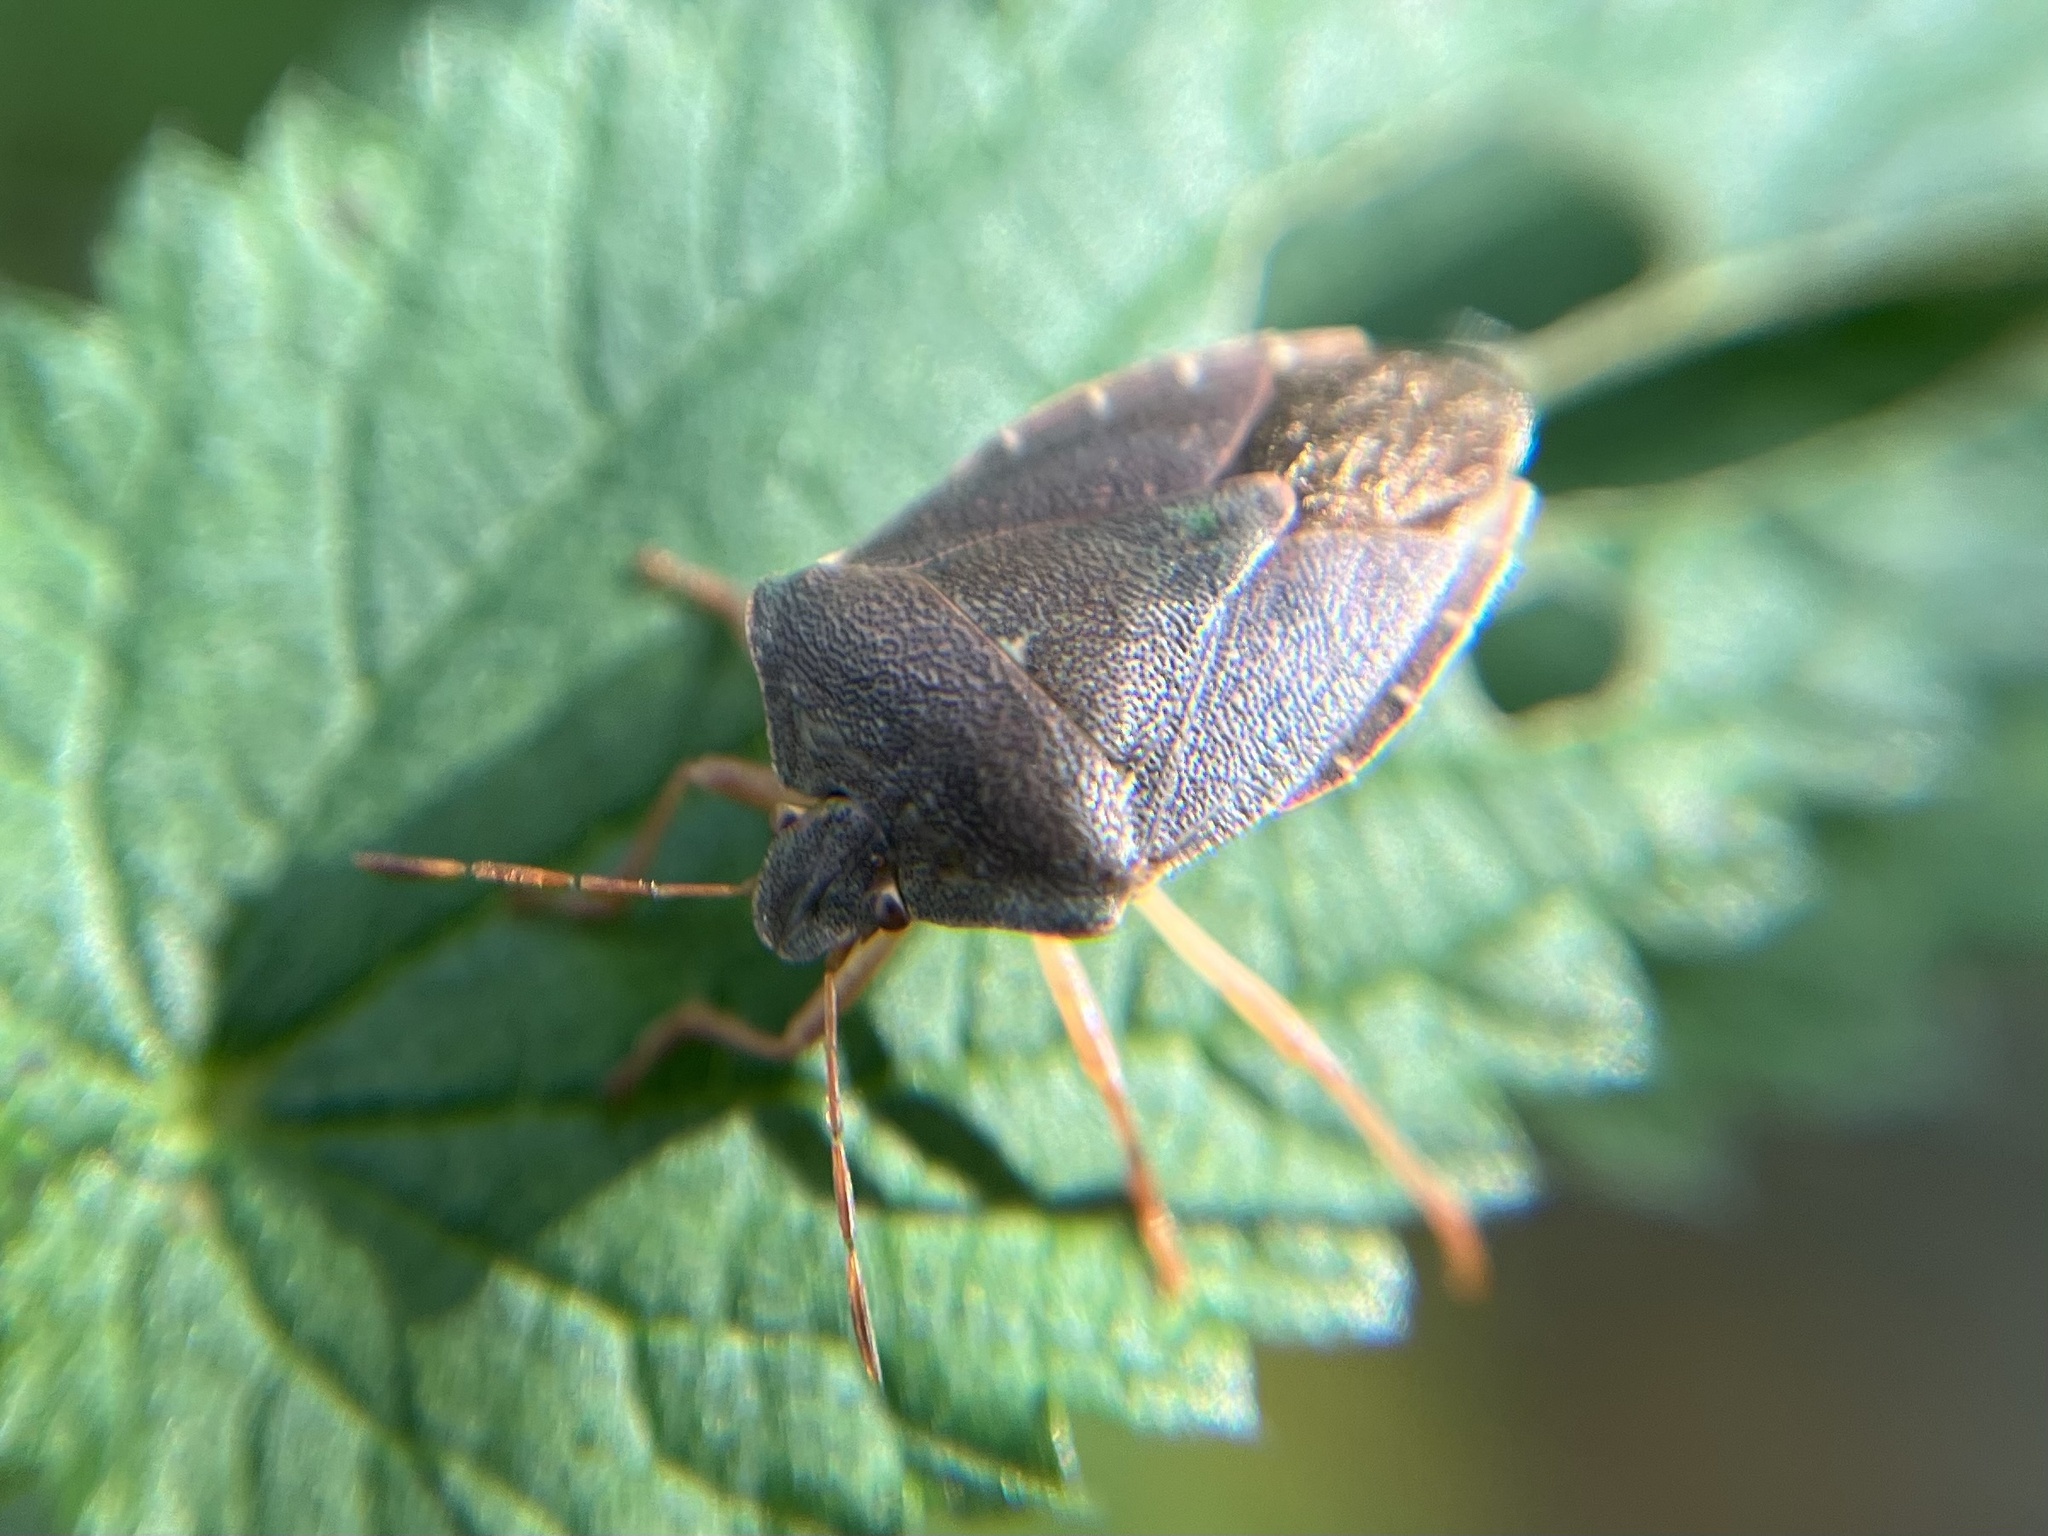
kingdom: Animalia
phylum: Arthropoda
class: Insecta
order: Hemiptera
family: Pentatomidae
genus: Palomena
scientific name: Palomena prasina
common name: Green shieldbug
